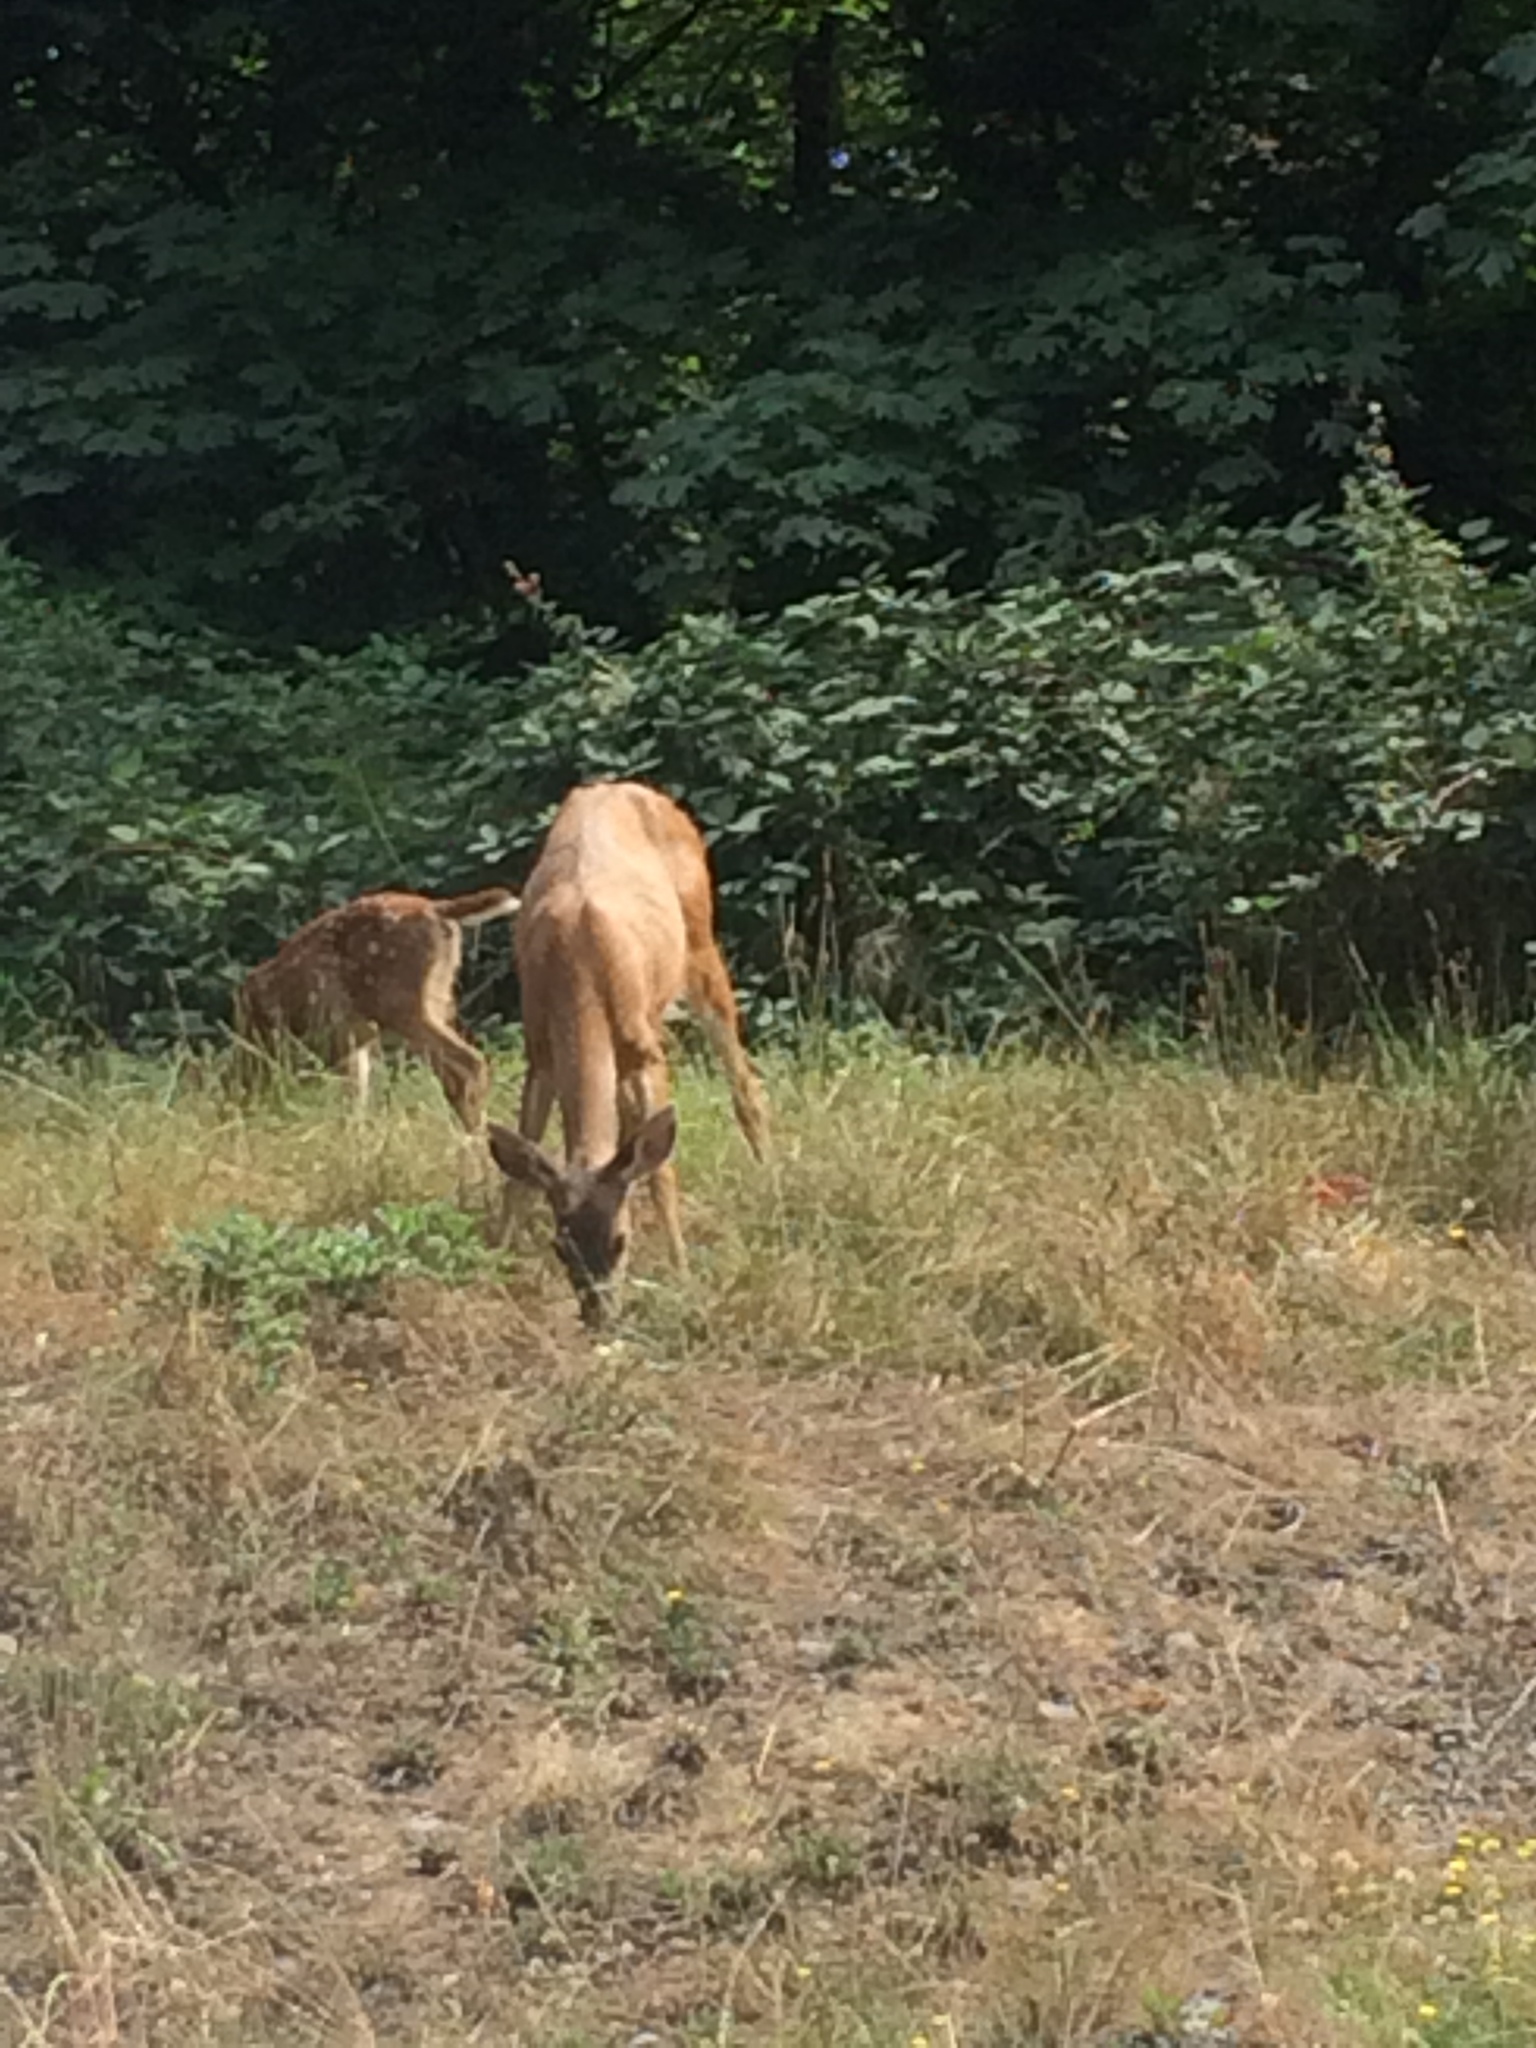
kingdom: Animalia
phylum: Chordata
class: Mammalia
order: Artiodactyla
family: Cervidae
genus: Odocoileus
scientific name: Odocoileus hemionus
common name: Mule deer
